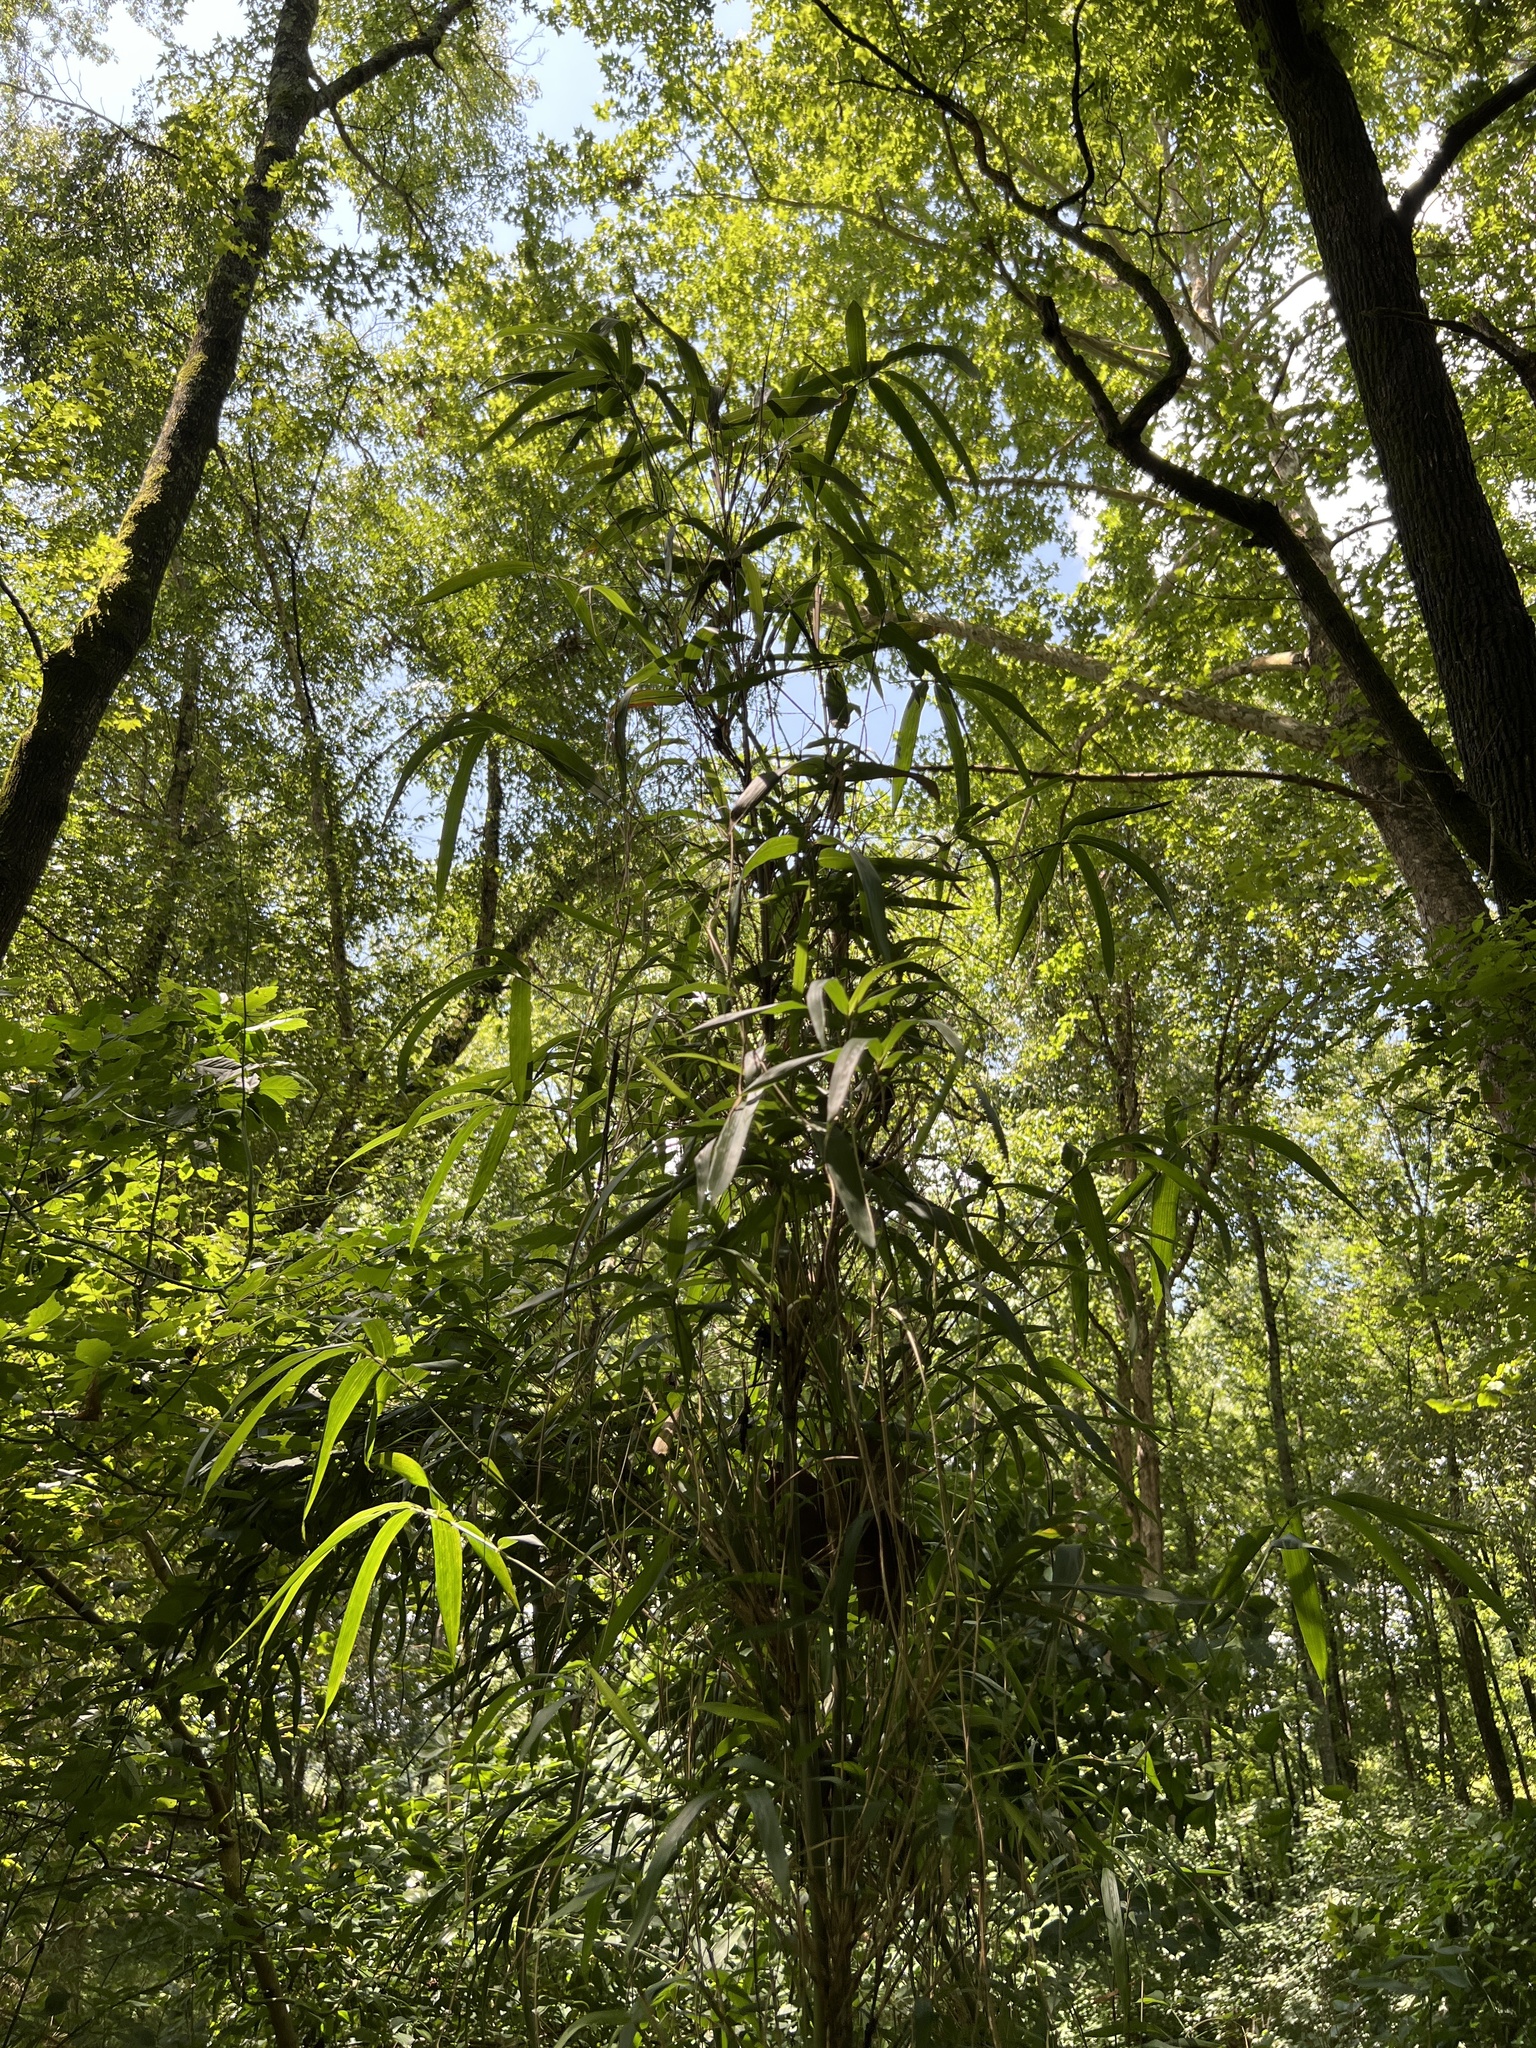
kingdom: Plantae
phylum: Tracheophyta
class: Liliopsida
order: Poales
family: Poaceae
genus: Arundinaria
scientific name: Arundinaria tecta
